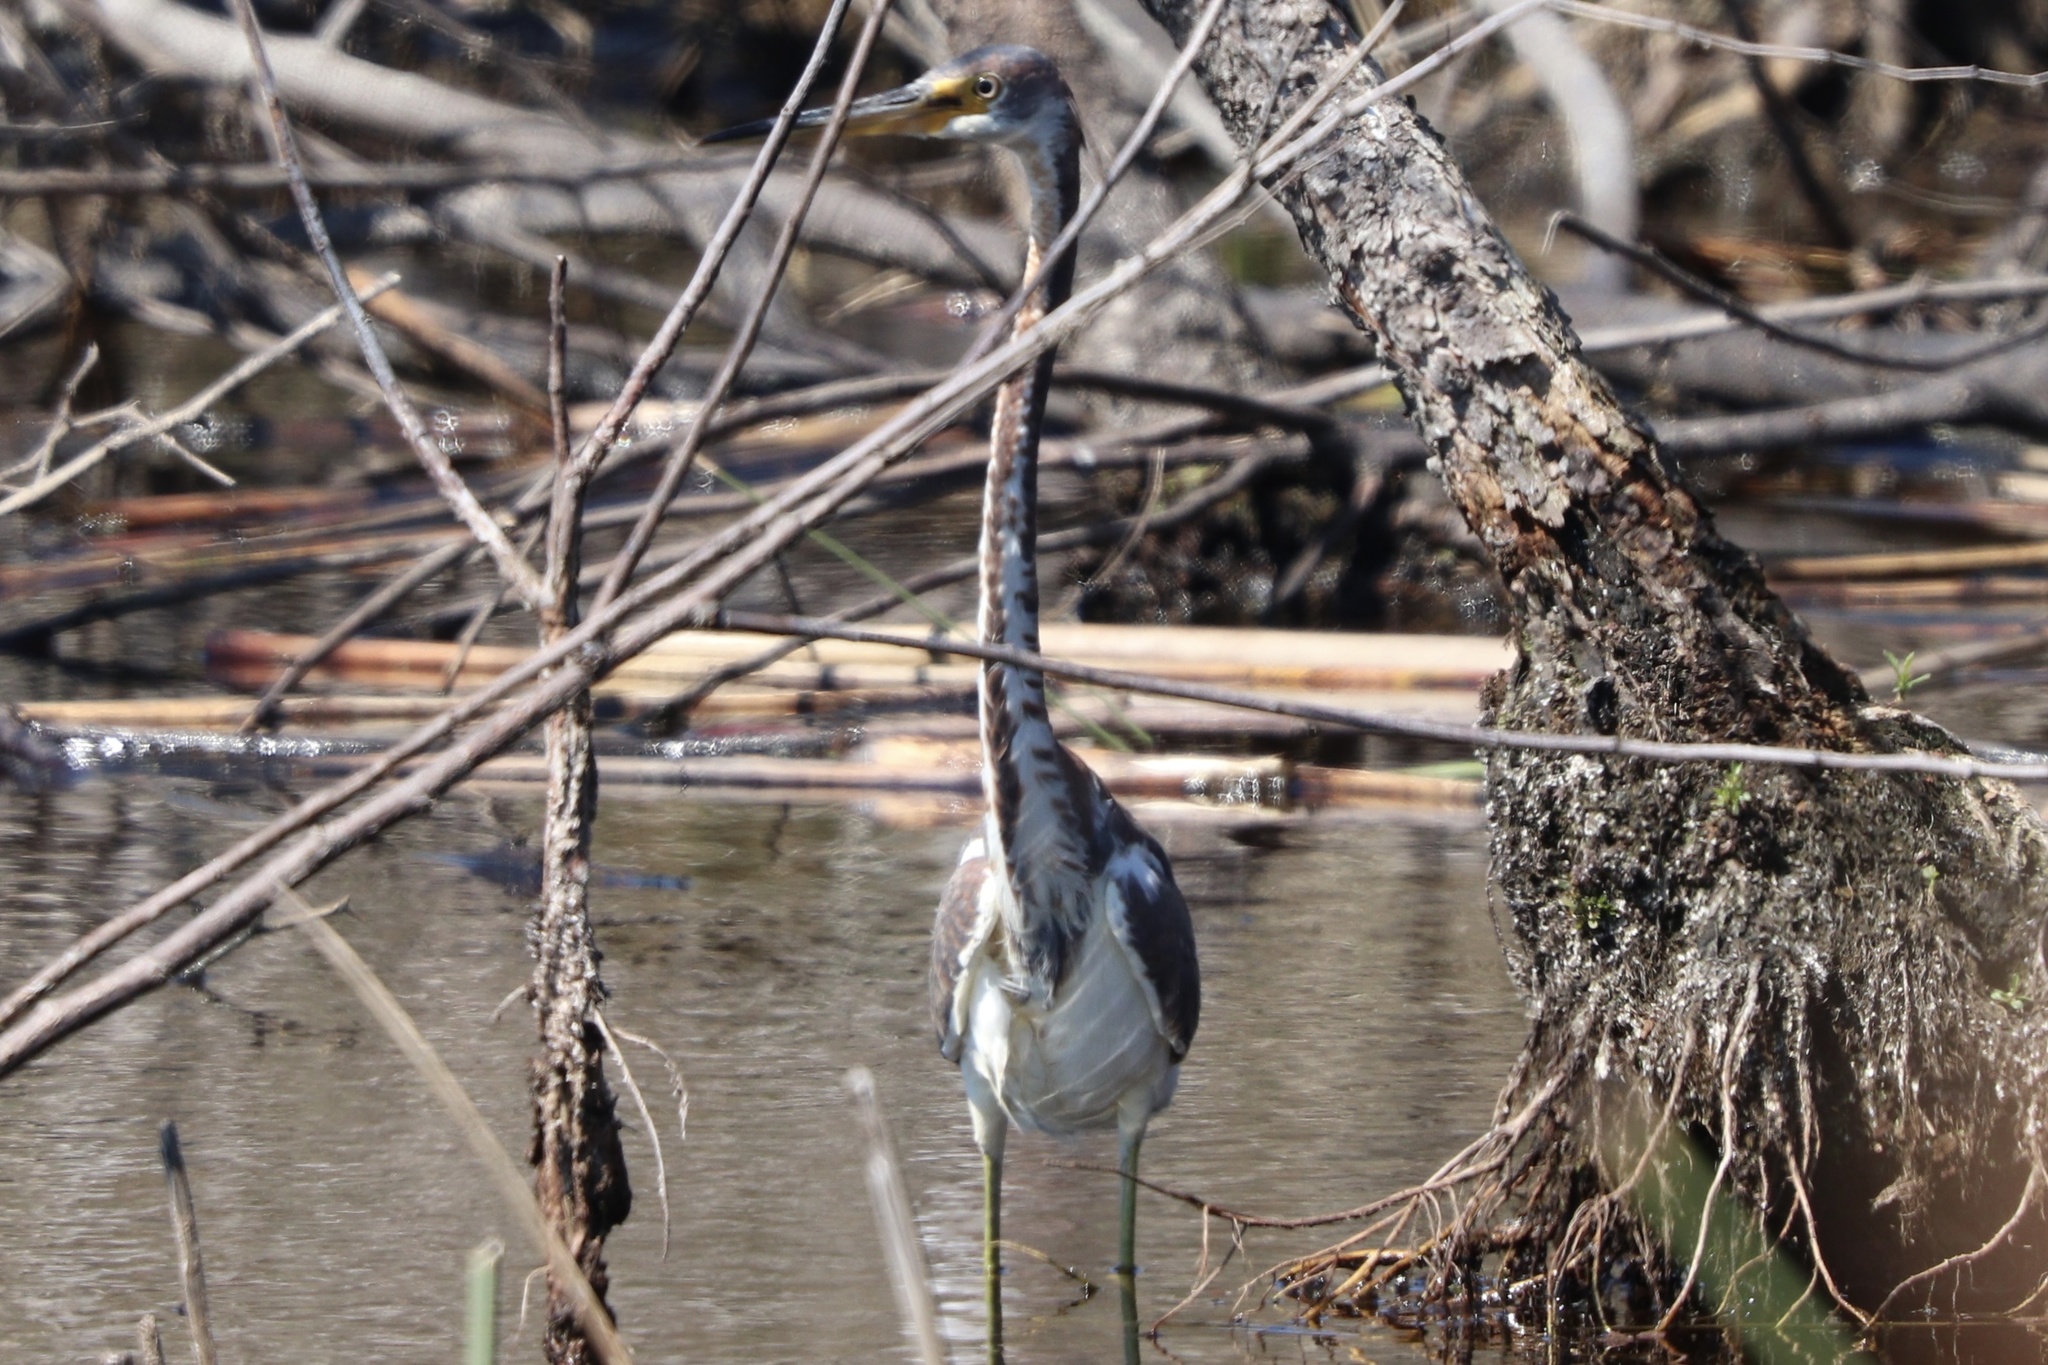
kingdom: Animalia
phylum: Chordata
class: Aves
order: Pelecaniformes
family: Ardeidae
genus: Egretta
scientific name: Egretta tricolor
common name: Tricolored heron
